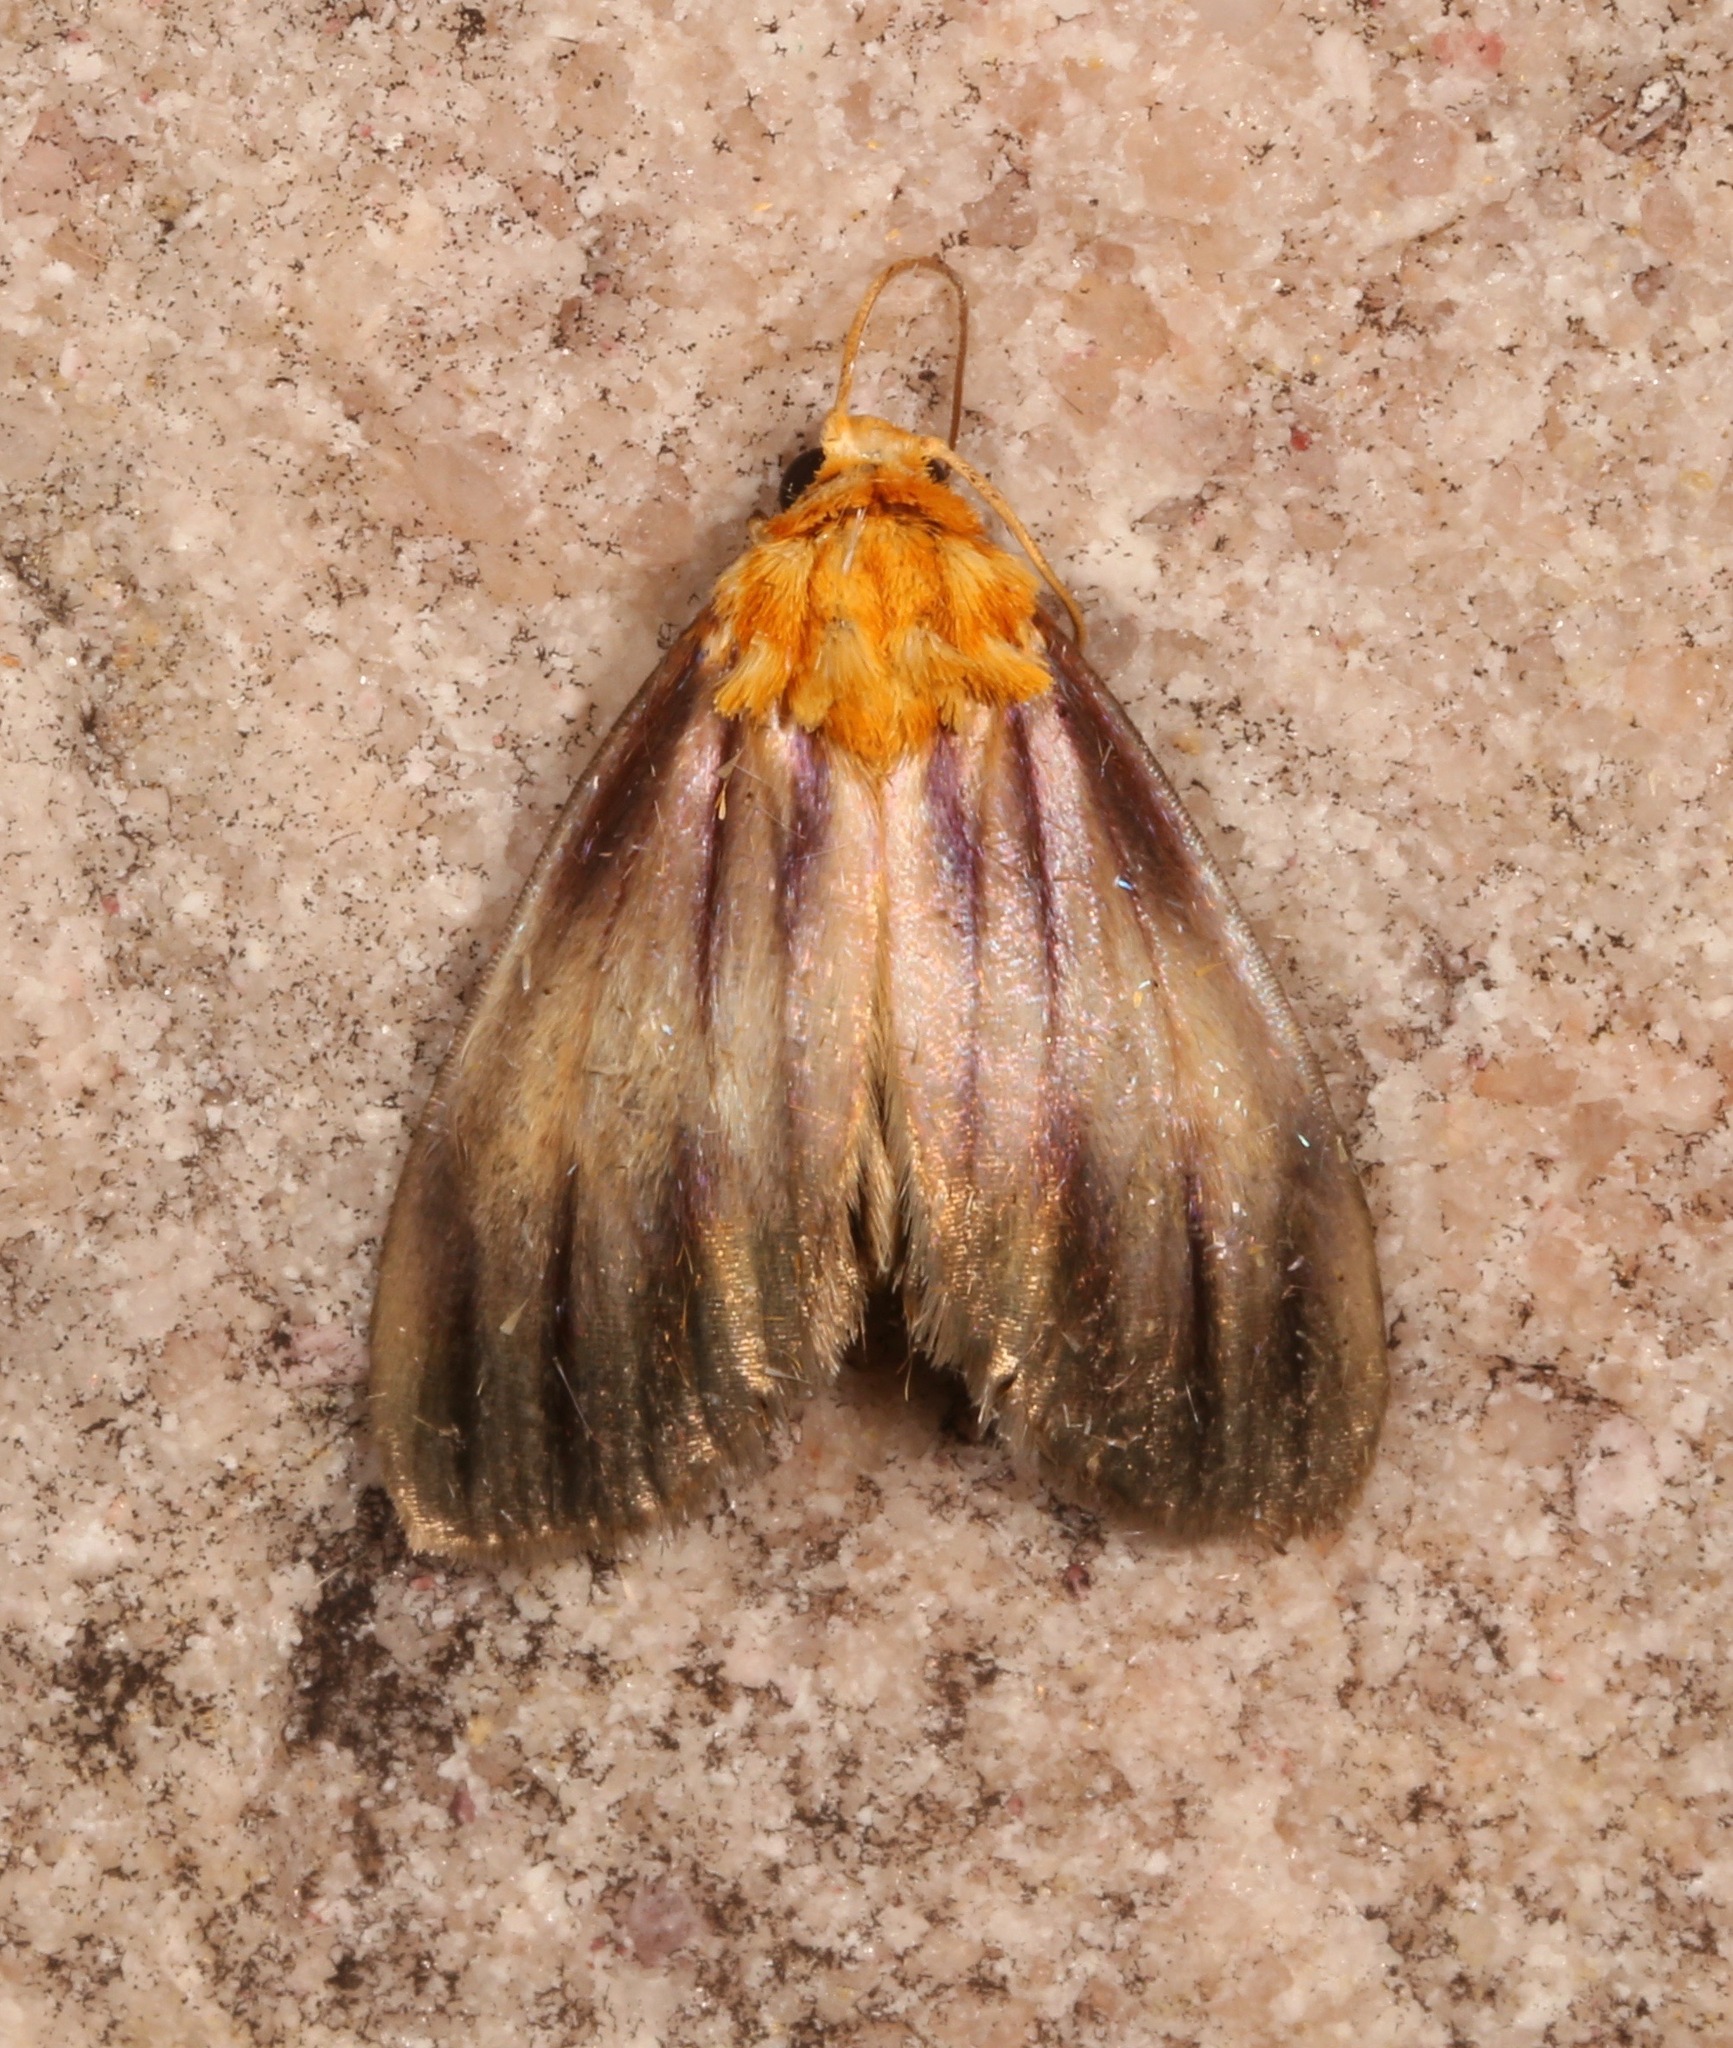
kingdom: Animalia
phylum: Arthropoda
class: Insecta
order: Lepidoptera
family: Noctuidae
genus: Antaplaga
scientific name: Antaplaga plesioglauca
